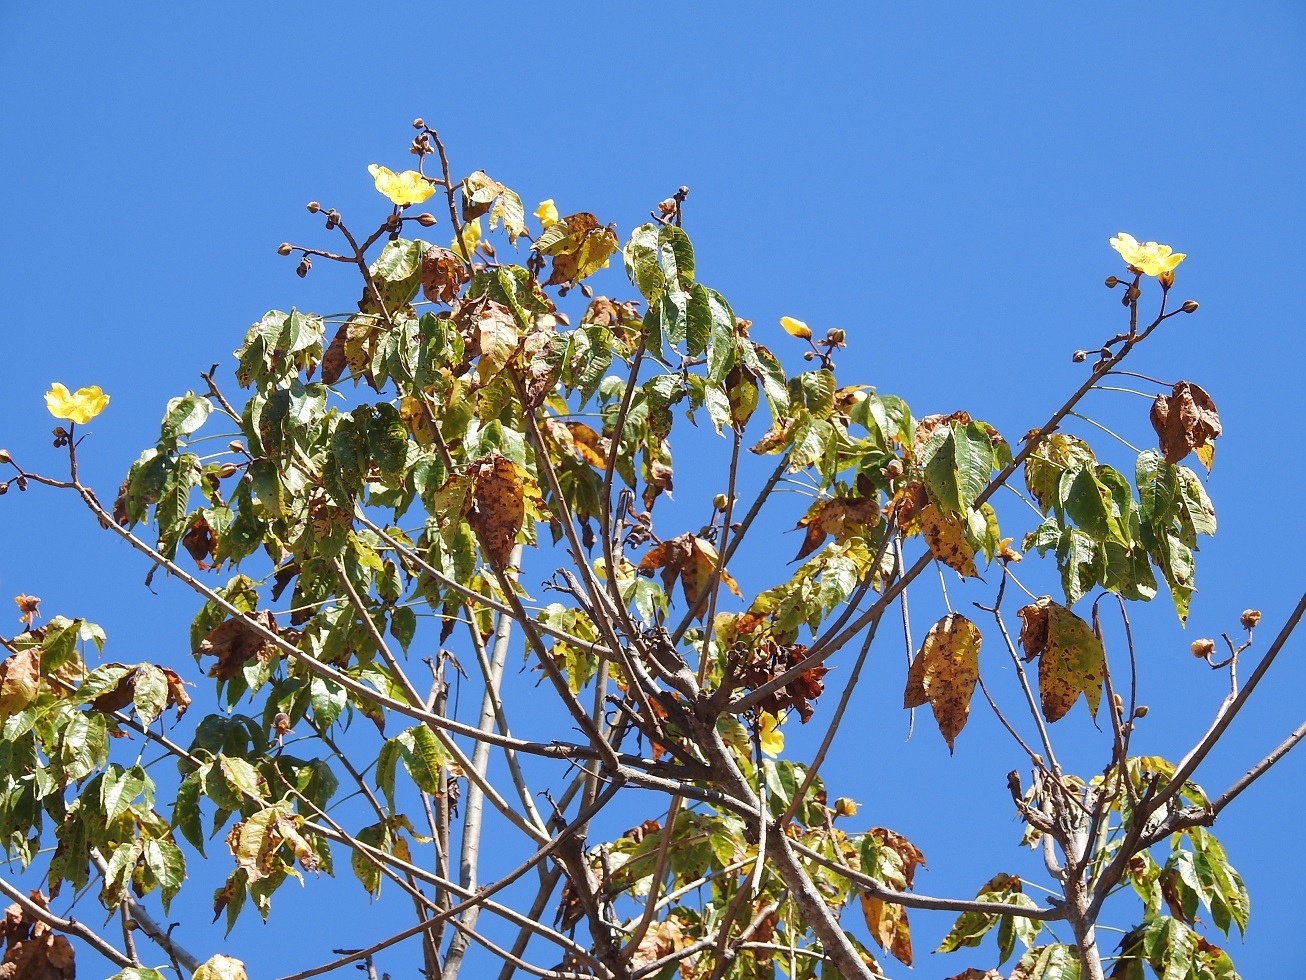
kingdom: Plantae
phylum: Tracheophyta
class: Magnoliopsida
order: Malvales
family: Cochlospermaceae
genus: Cochlospermum
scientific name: Cochlospermum vitifolium
